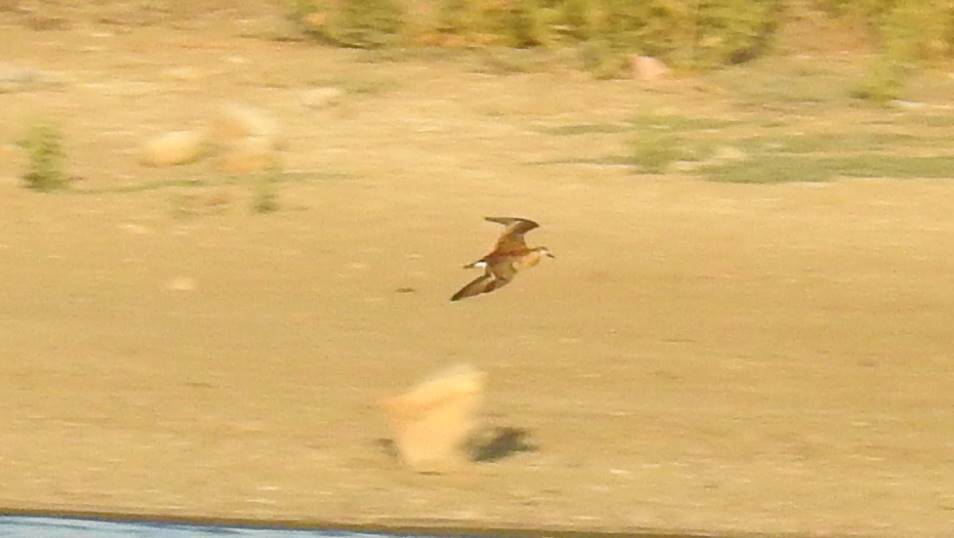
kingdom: Animalia
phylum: Chordata
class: Aves
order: Charadriiformes
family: Scolopacidae
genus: Calidris
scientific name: Calidris pugnax
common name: Ruff
